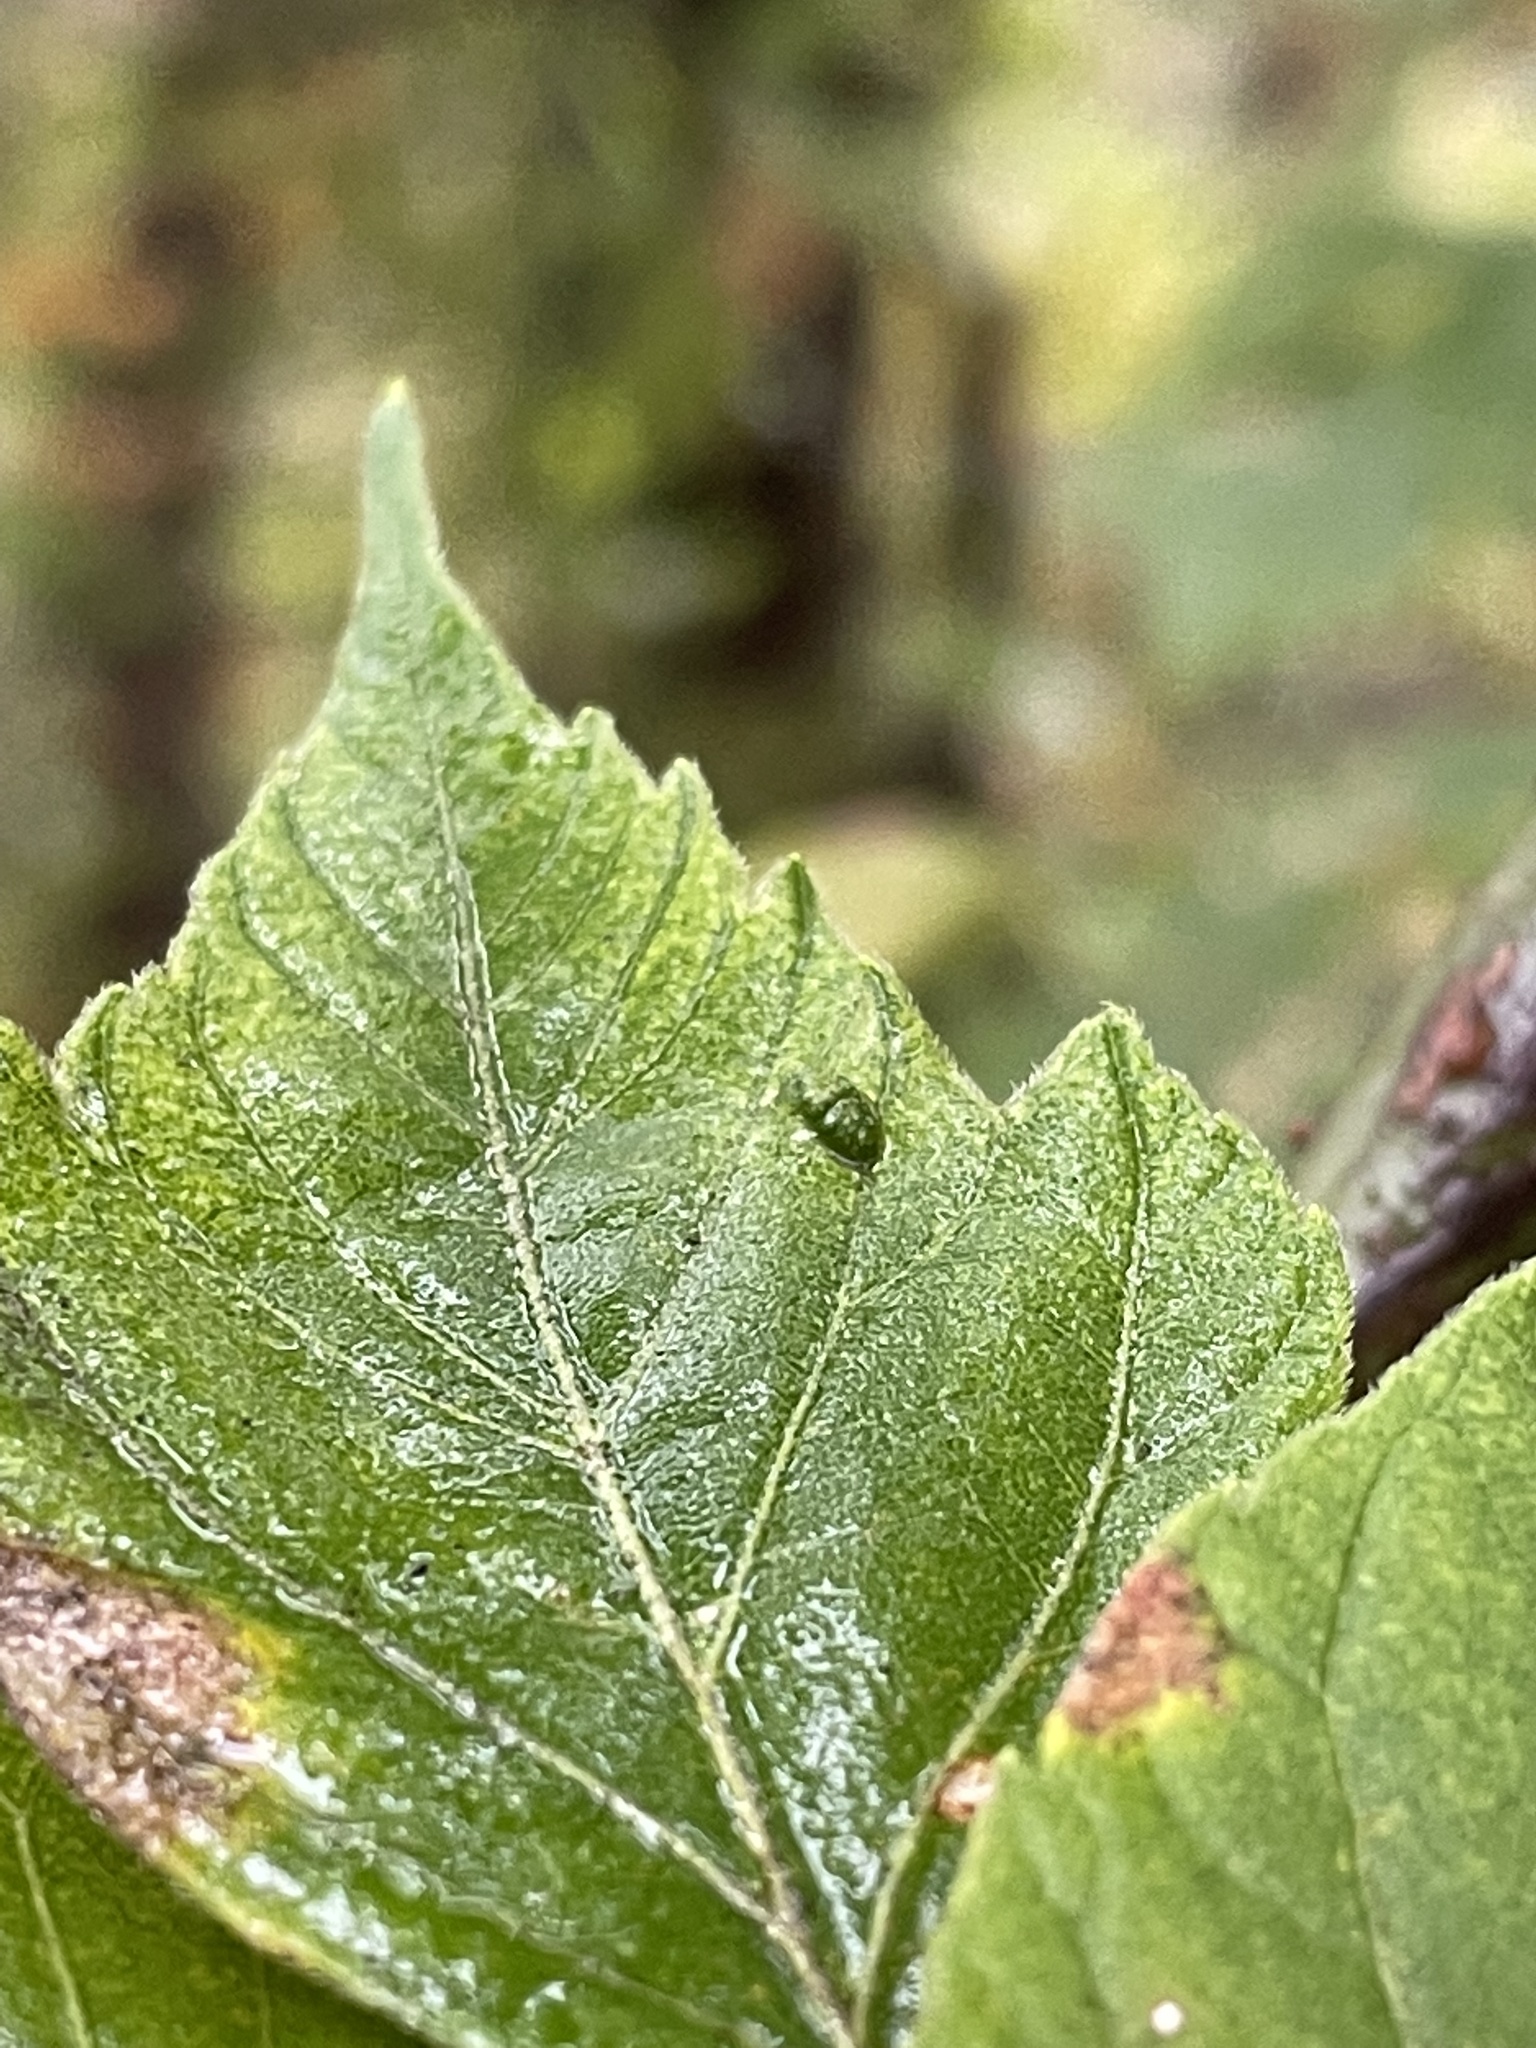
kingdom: Animalia
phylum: Arthropoda
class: Arachnida
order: Trombidiformes
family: Eriophyidae
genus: Aceria
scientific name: Aceria
